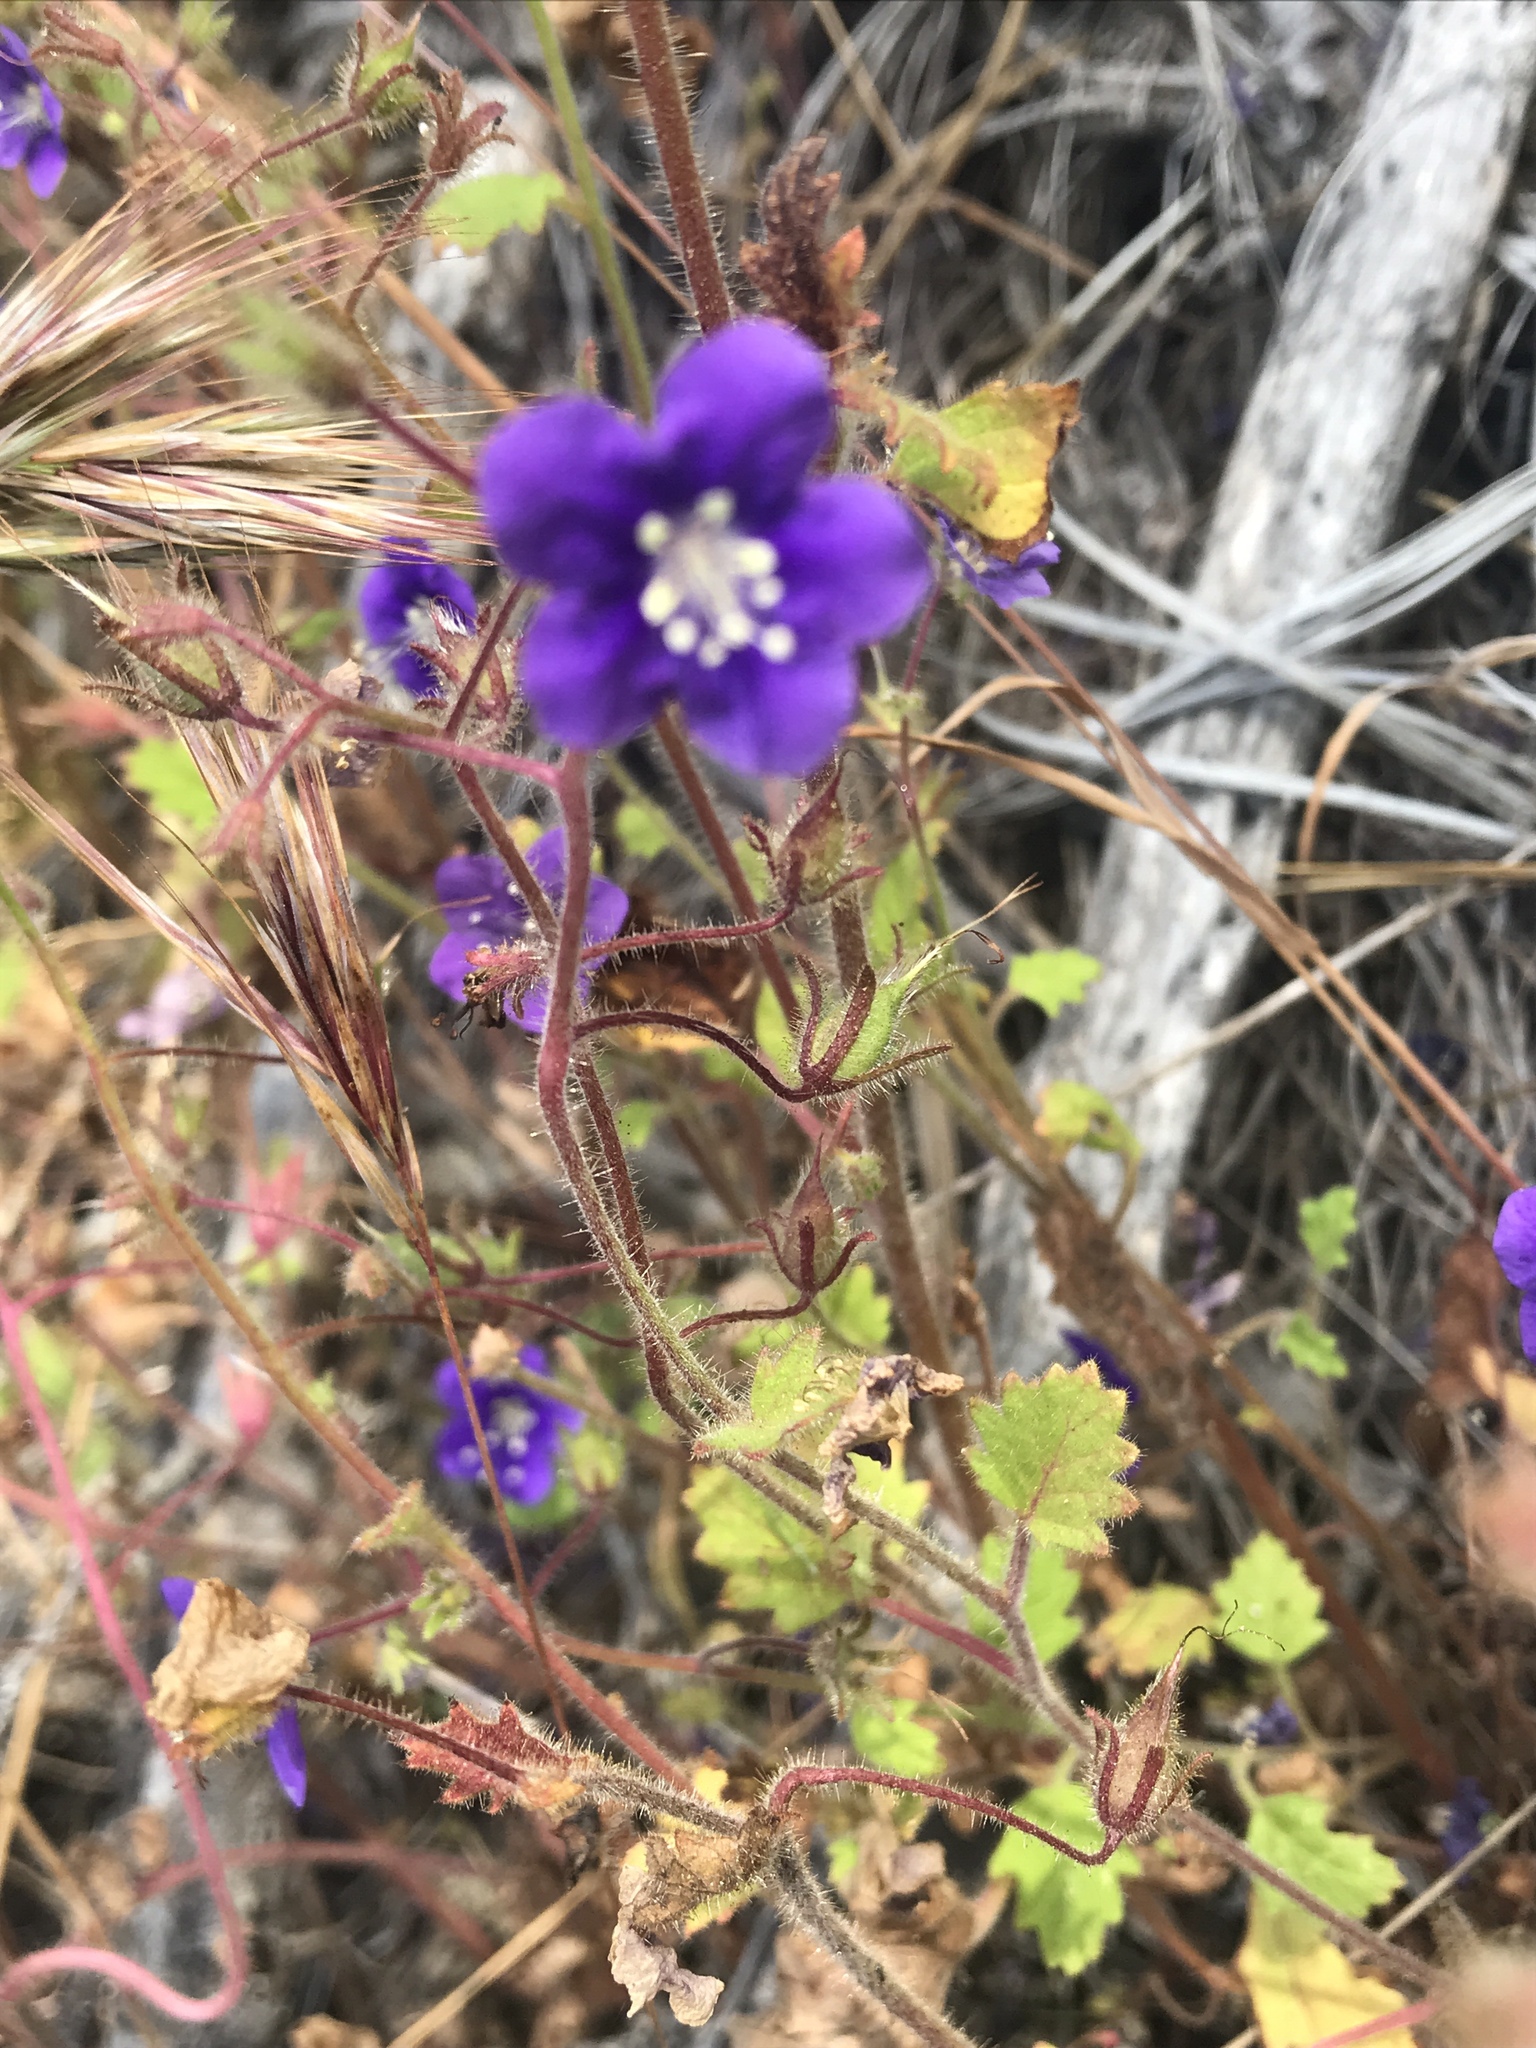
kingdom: Plantae
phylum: Tracheophyta
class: Magnoliopsida
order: Boraginales
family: Hydrophyllaceae
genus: Phacelia
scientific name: Phacelia parryi
